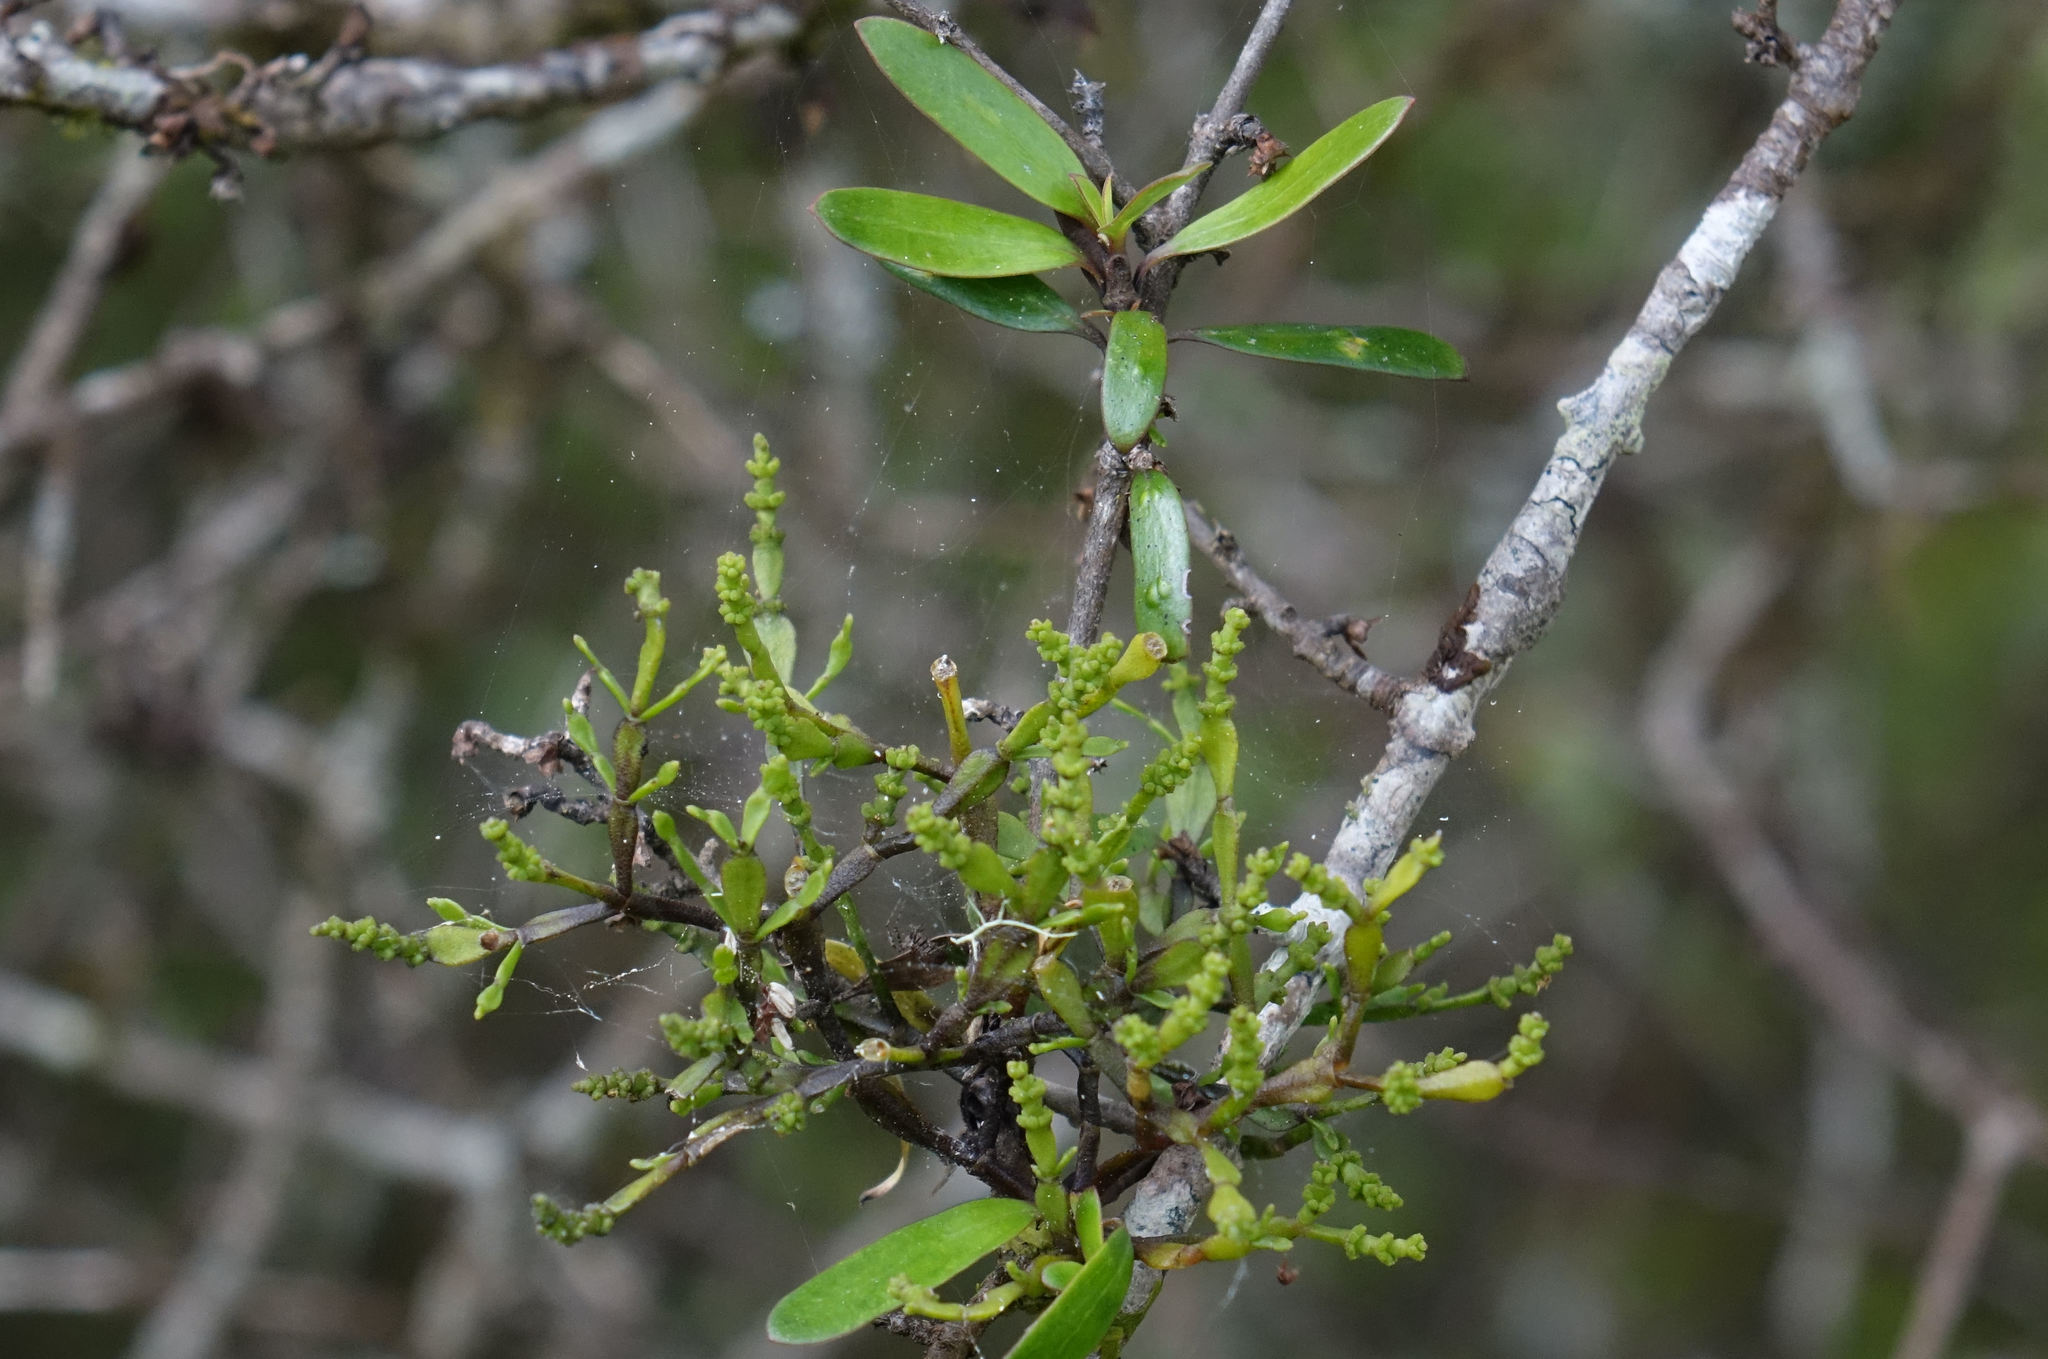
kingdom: Plantae
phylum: Tracheophyta
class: Magnoliopsida
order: Santalales
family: Viscaceae
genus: Korthalsella
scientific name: Korthalsella clavata
